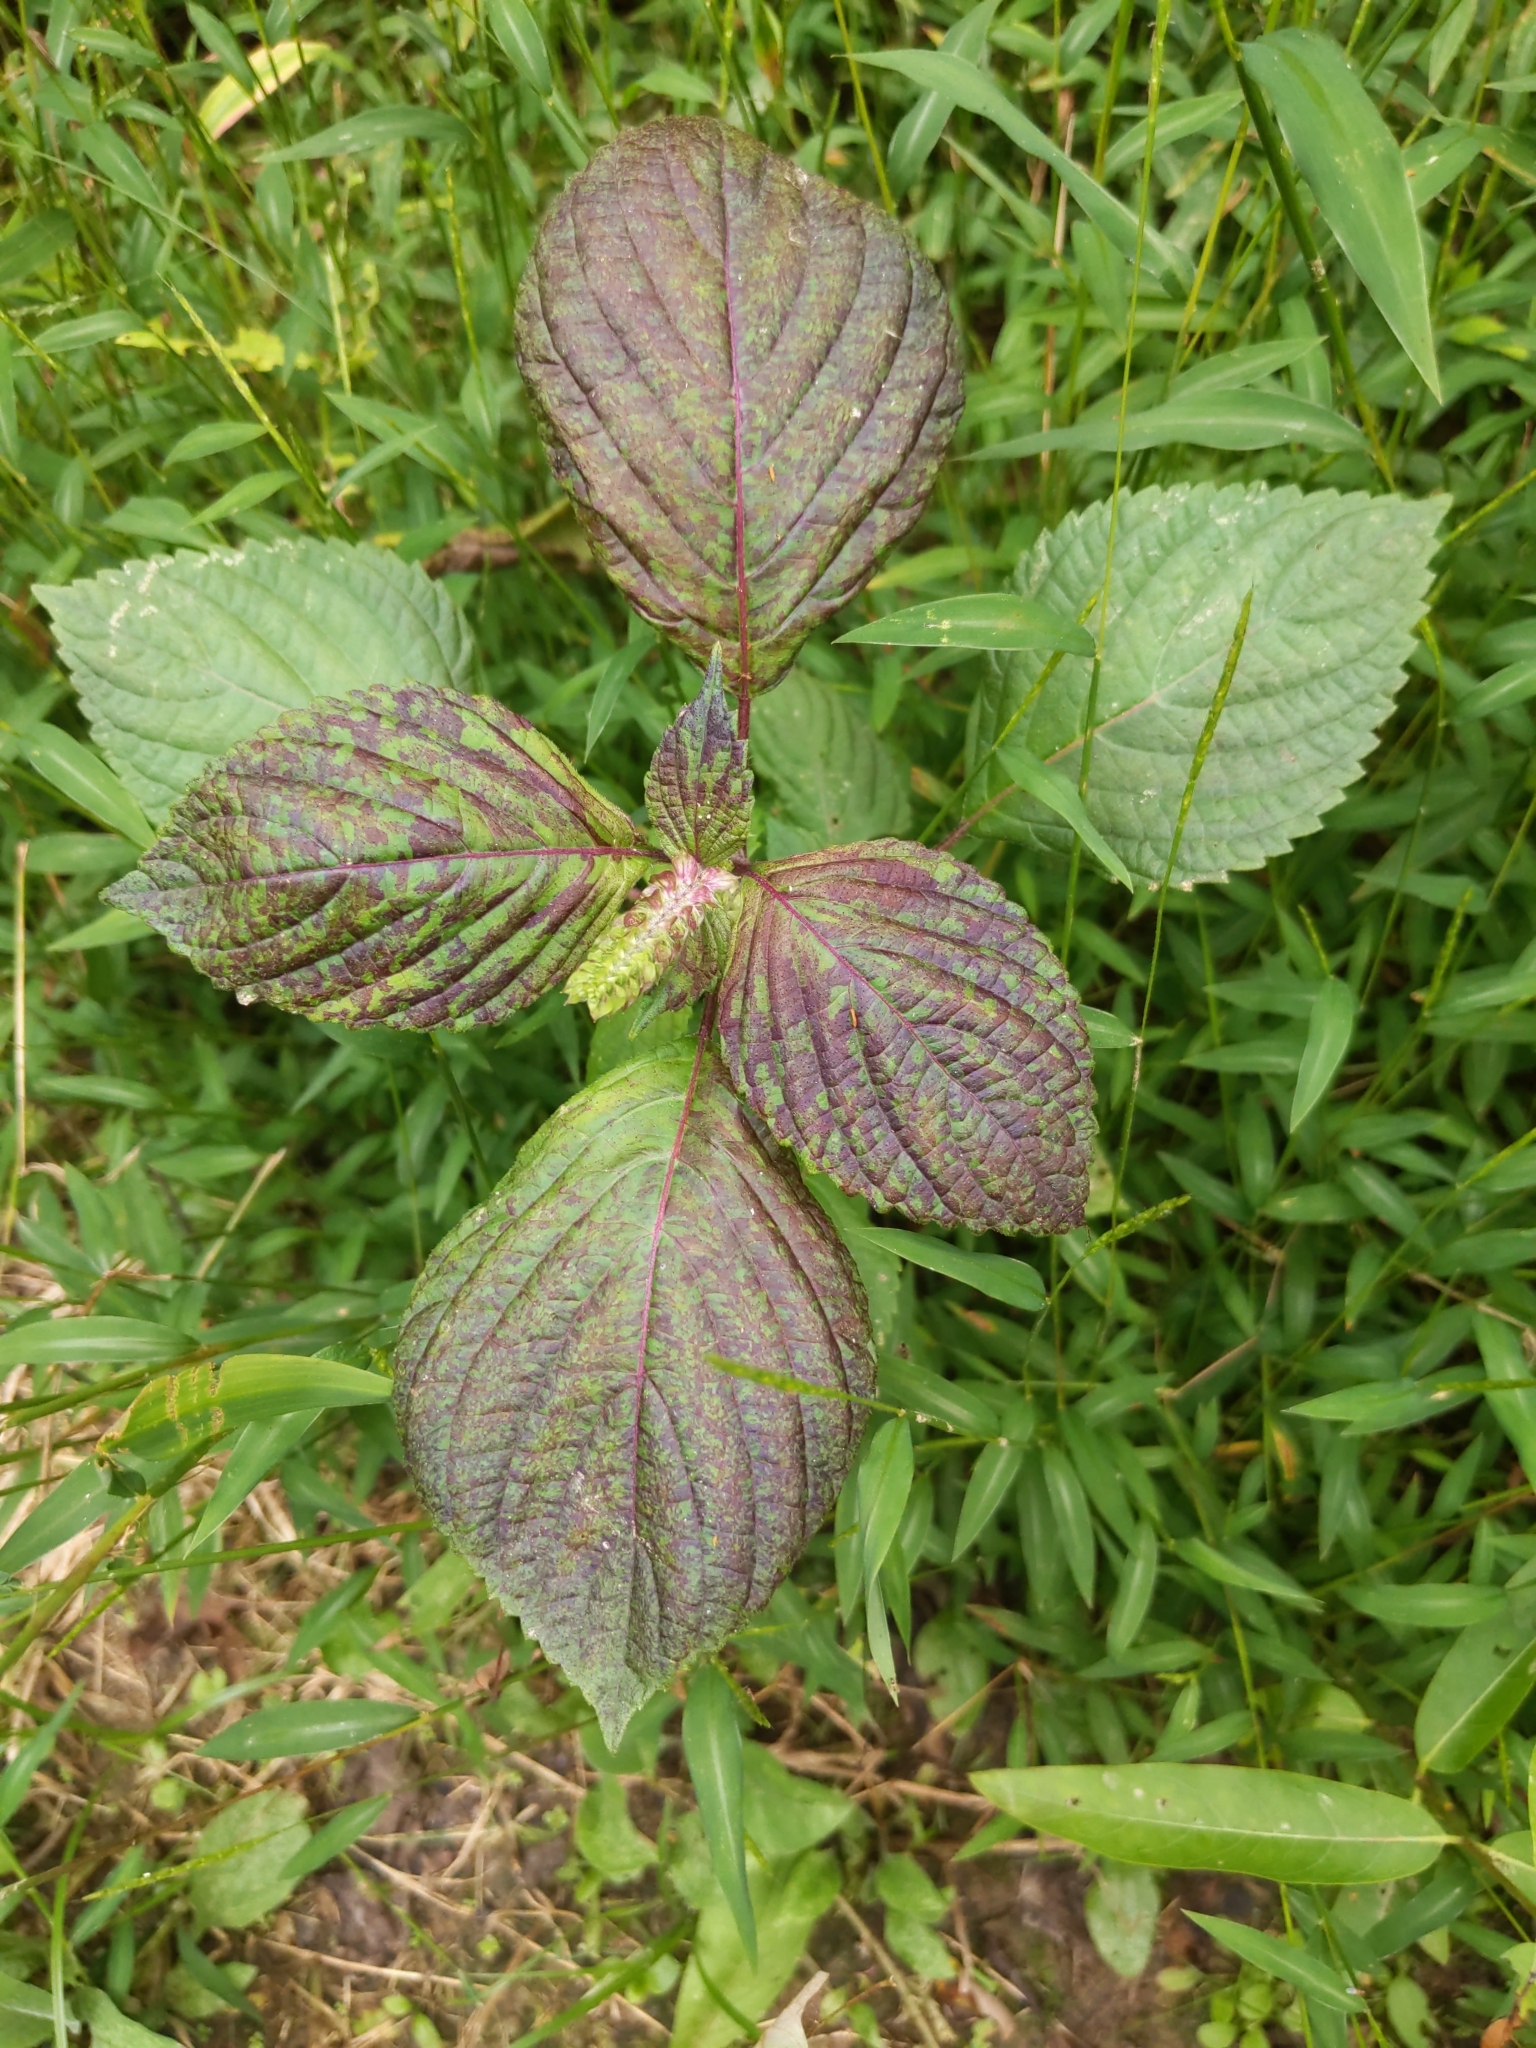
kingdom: Plantae
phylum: Tracheophyta
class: Magnoliopsida
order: Lamiales
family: Lamiaceae
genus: Perilla
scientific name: Perilla frutescens
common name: Perilla
